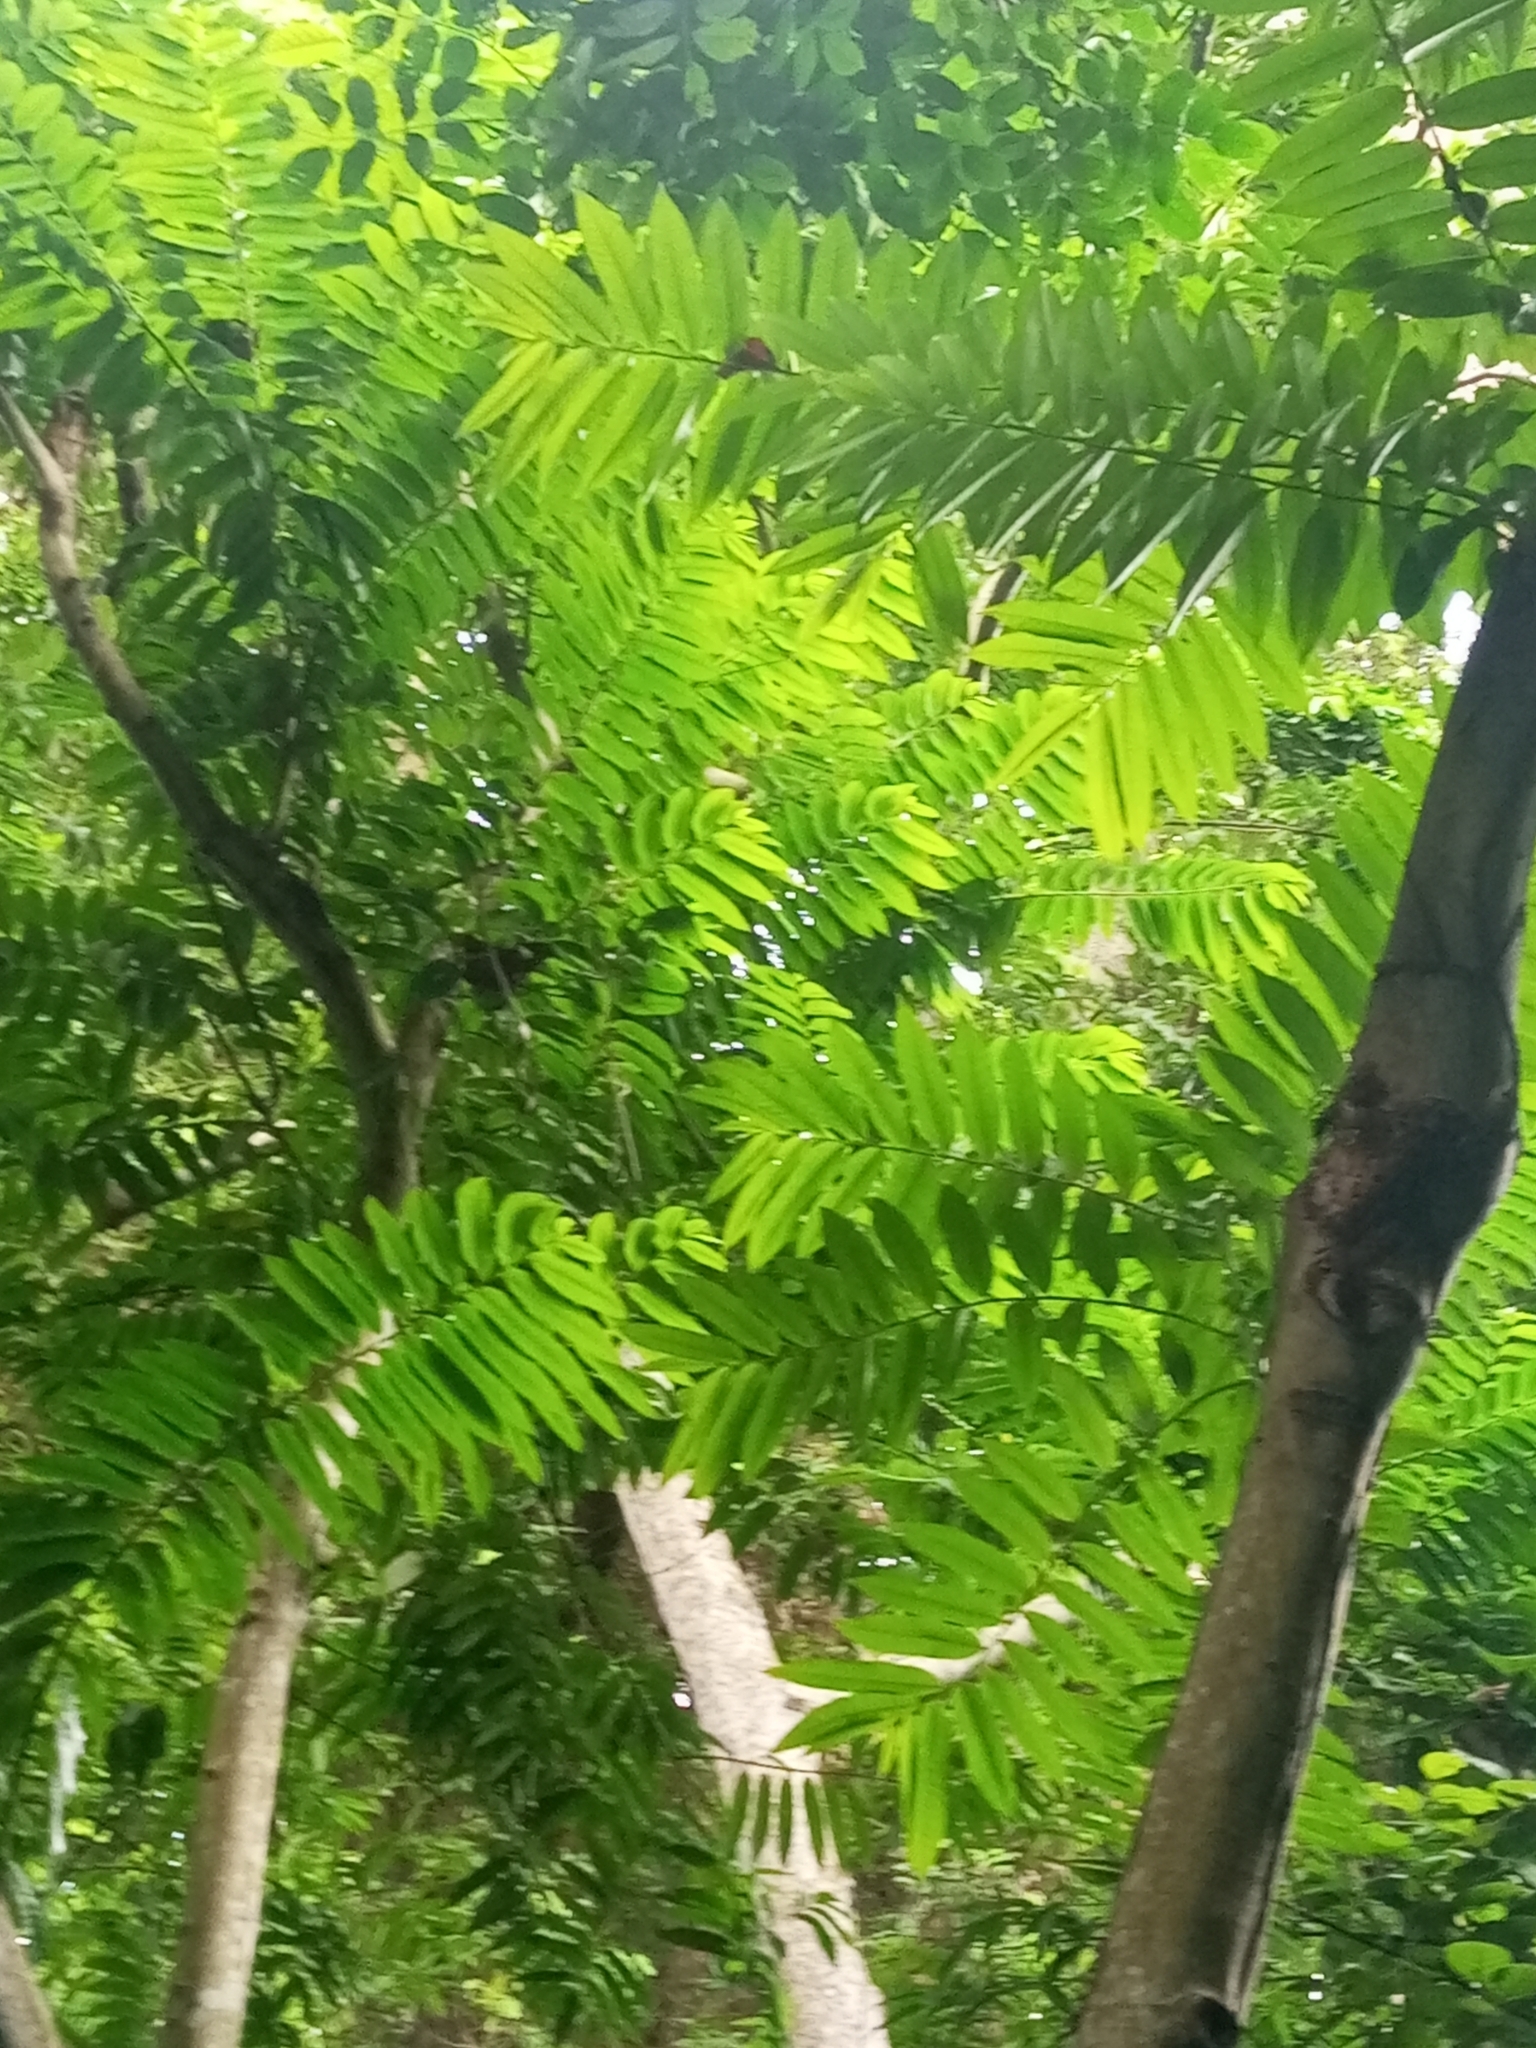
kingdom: Plantae
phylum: Tracheophyta
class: Magnoliopsida
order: Magnoliales
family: Annonaceae
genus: Cleistopholis
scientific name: Cleistopholis patens
